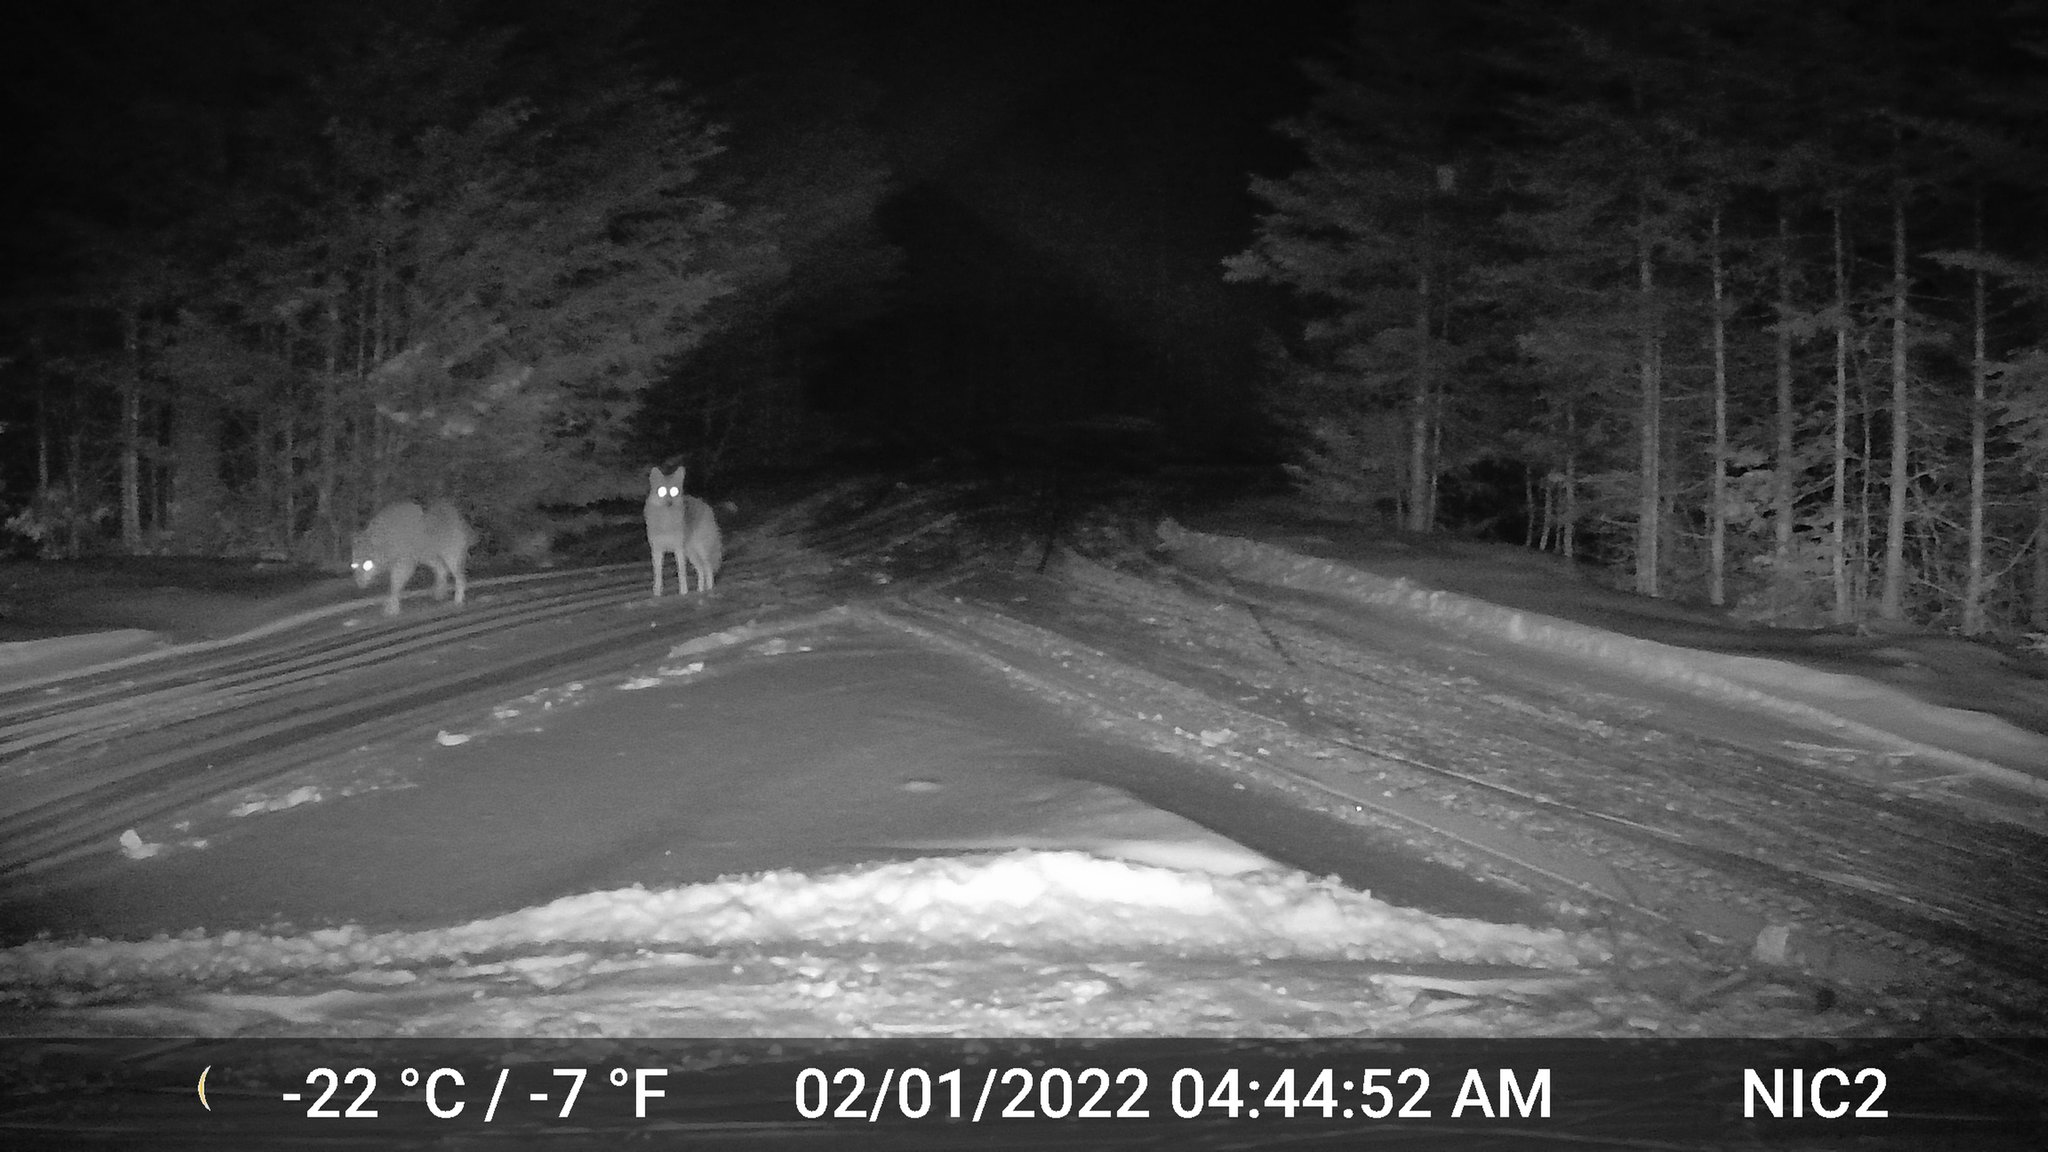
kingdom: Animalia
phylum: Chordata
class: Mammalia
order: Carnivora
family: Canidae
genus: Canis
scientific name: Canis latrans
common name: Coyote
